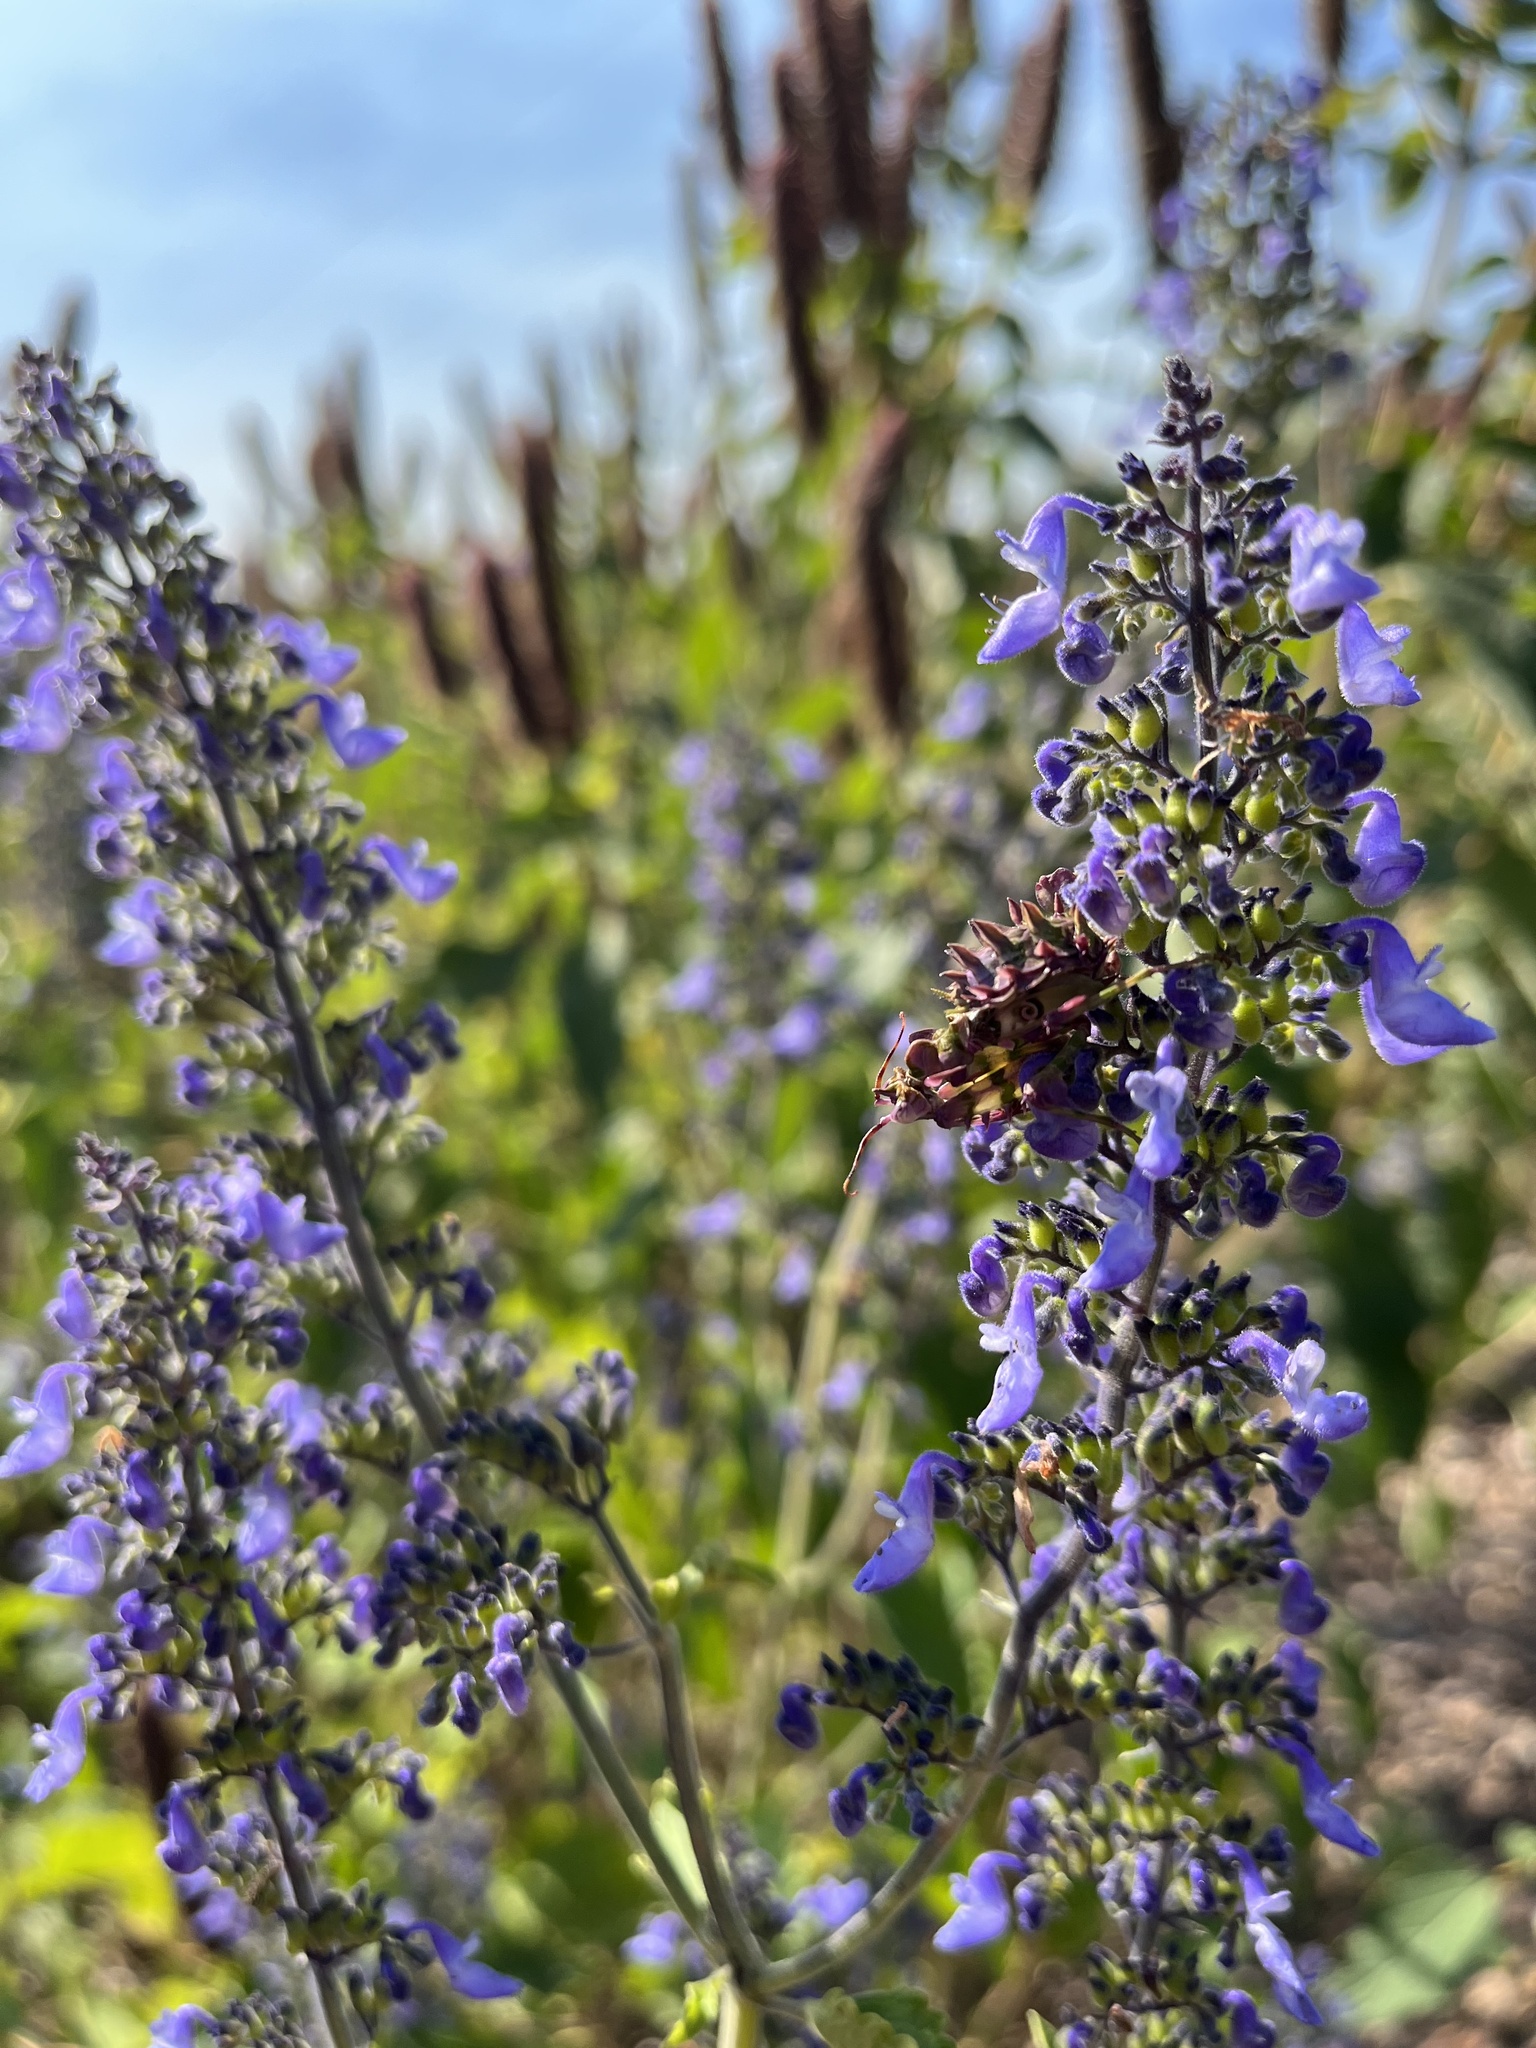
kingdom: Animalia
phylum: Arthropoda
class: Insecta
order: Mantodea
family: Hymenopodidae
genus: Pseudocreobotra
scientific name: Pseudocreobotra wahlbergi
